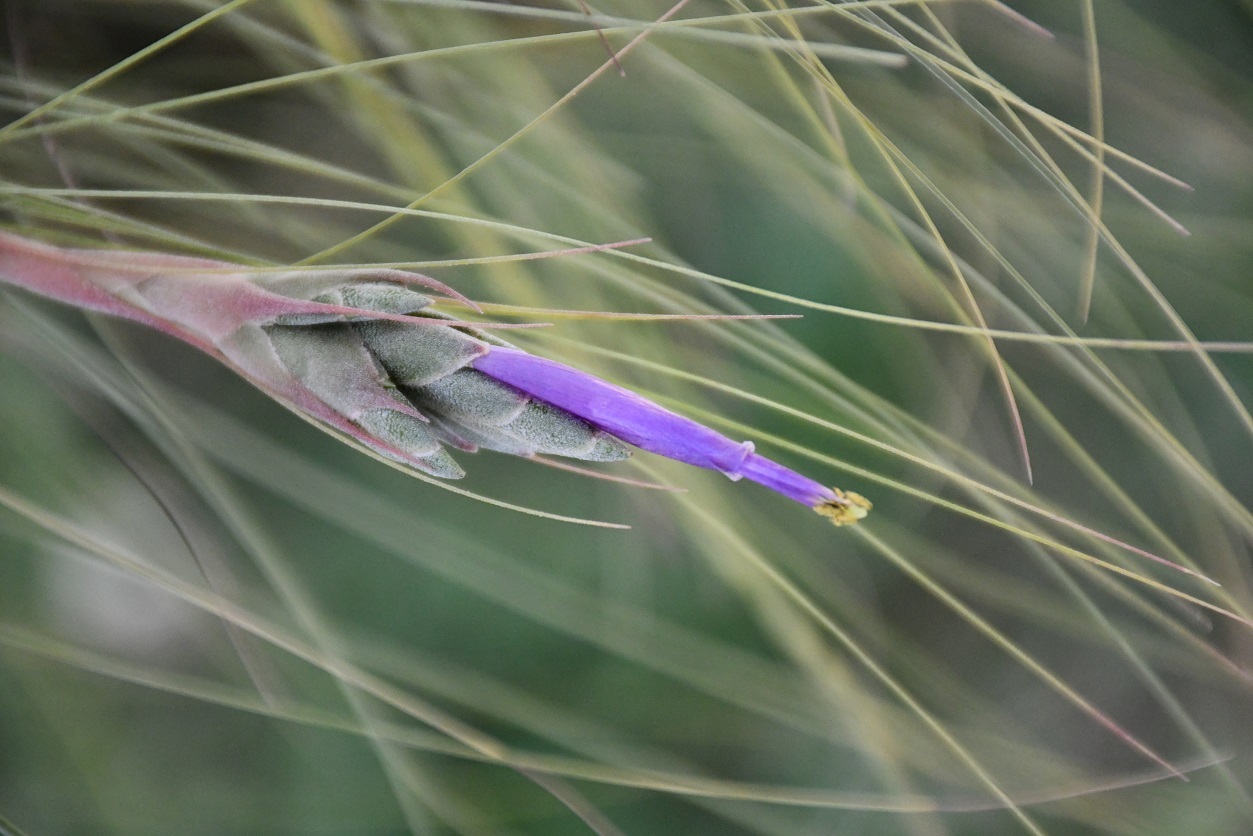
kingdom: Plantae
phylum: Tracheophyta
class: Liliopsida
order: Poales
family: Bromeliaceae
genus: Tillandsia
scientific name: Tillandsia juncea
